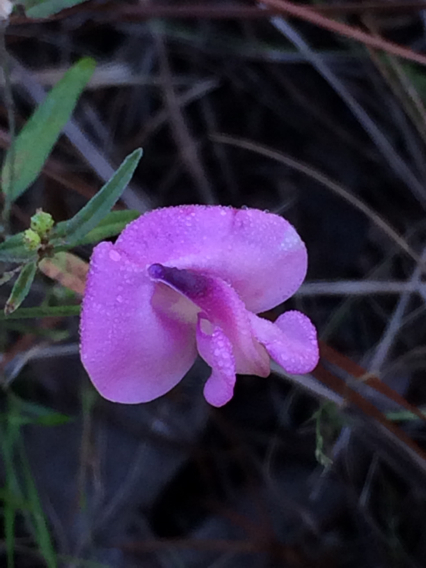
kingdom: Plantae
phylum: Tracheophyta
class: Magnoliopsida
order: Fabales
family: Fabaceae
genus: Strophostyles
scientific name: Strophostyles umbellata
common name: Perennial wild bean
